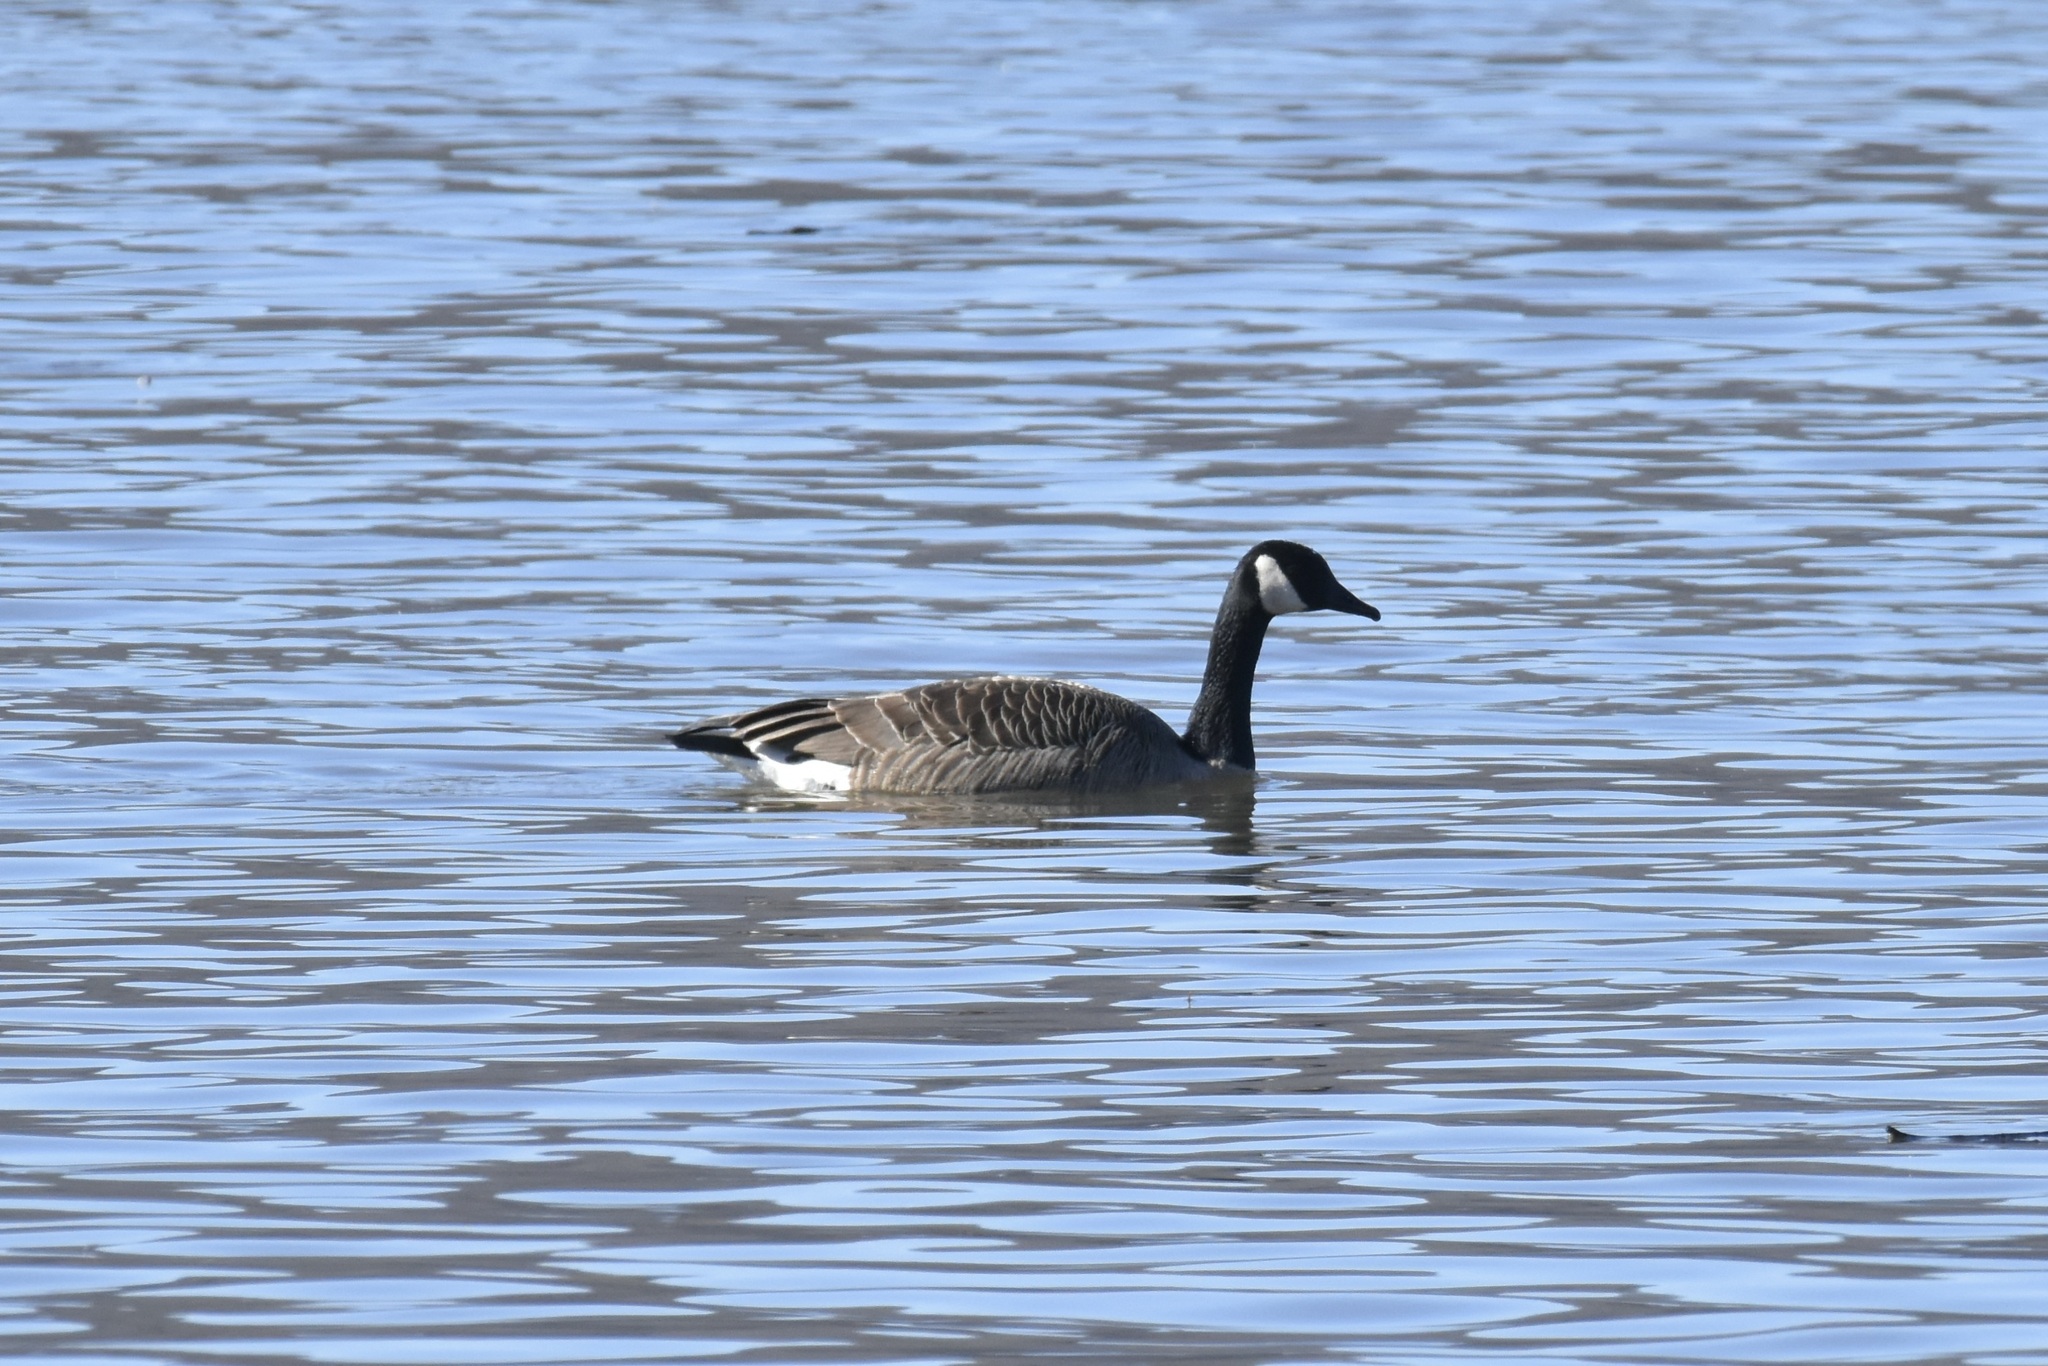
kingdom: Animalia
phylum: Chordata
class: Aves
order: Anseriformes
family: Anatidae
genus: Branta
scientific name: Branta canadensis
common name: Canada goose
